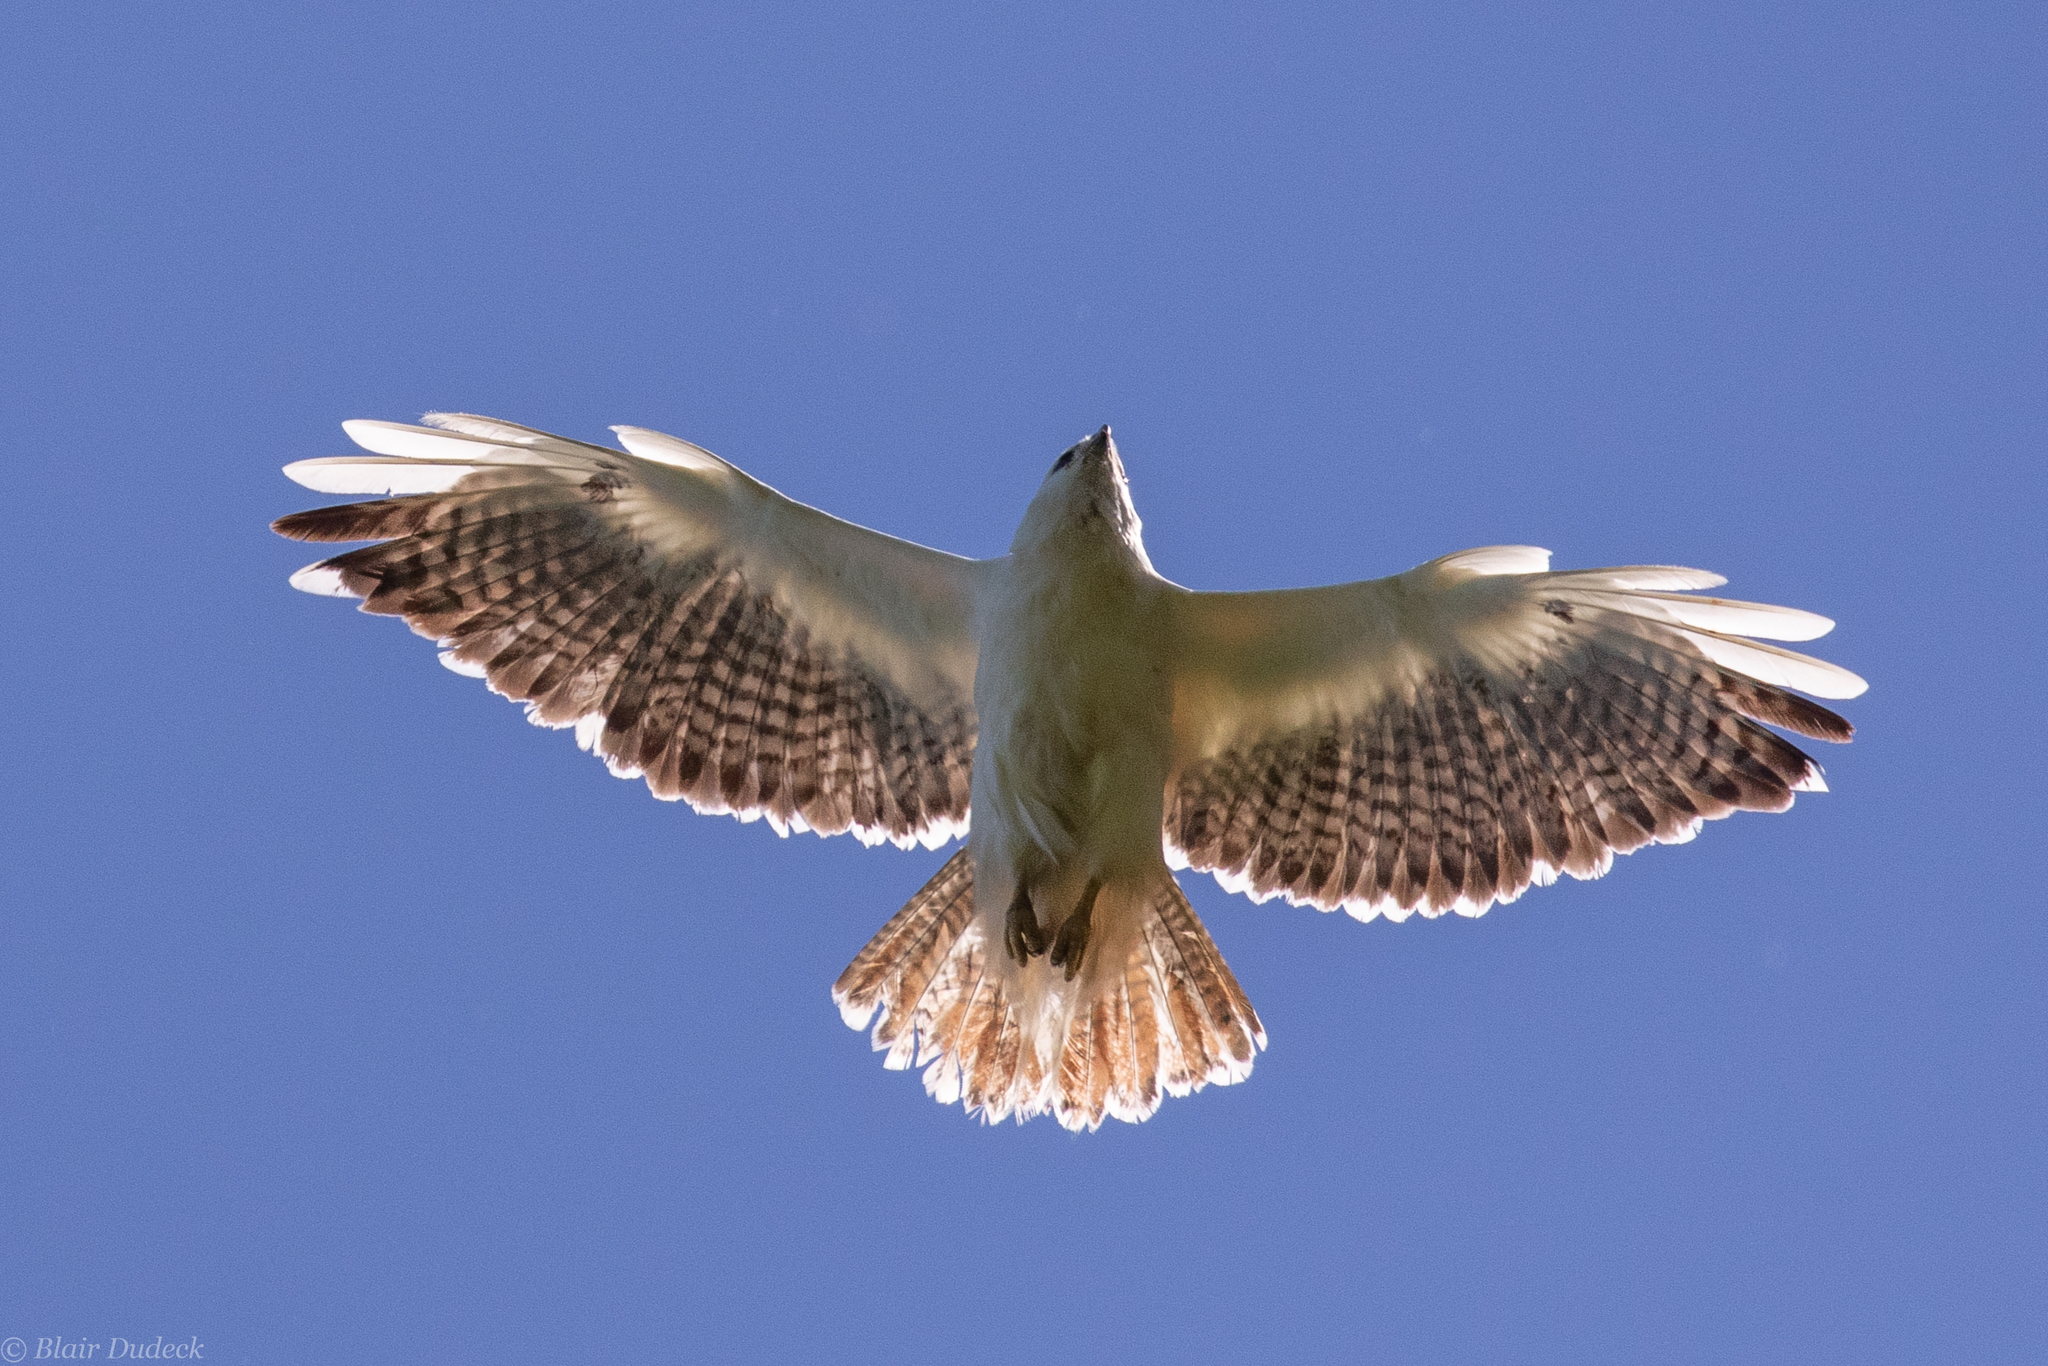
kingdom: Animalia
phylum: Chordata
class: Aves
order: Accipitriformes
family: Accipitridae
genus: Buteo
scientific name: Buteo jamaicensis
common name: Red-tailed hawk
